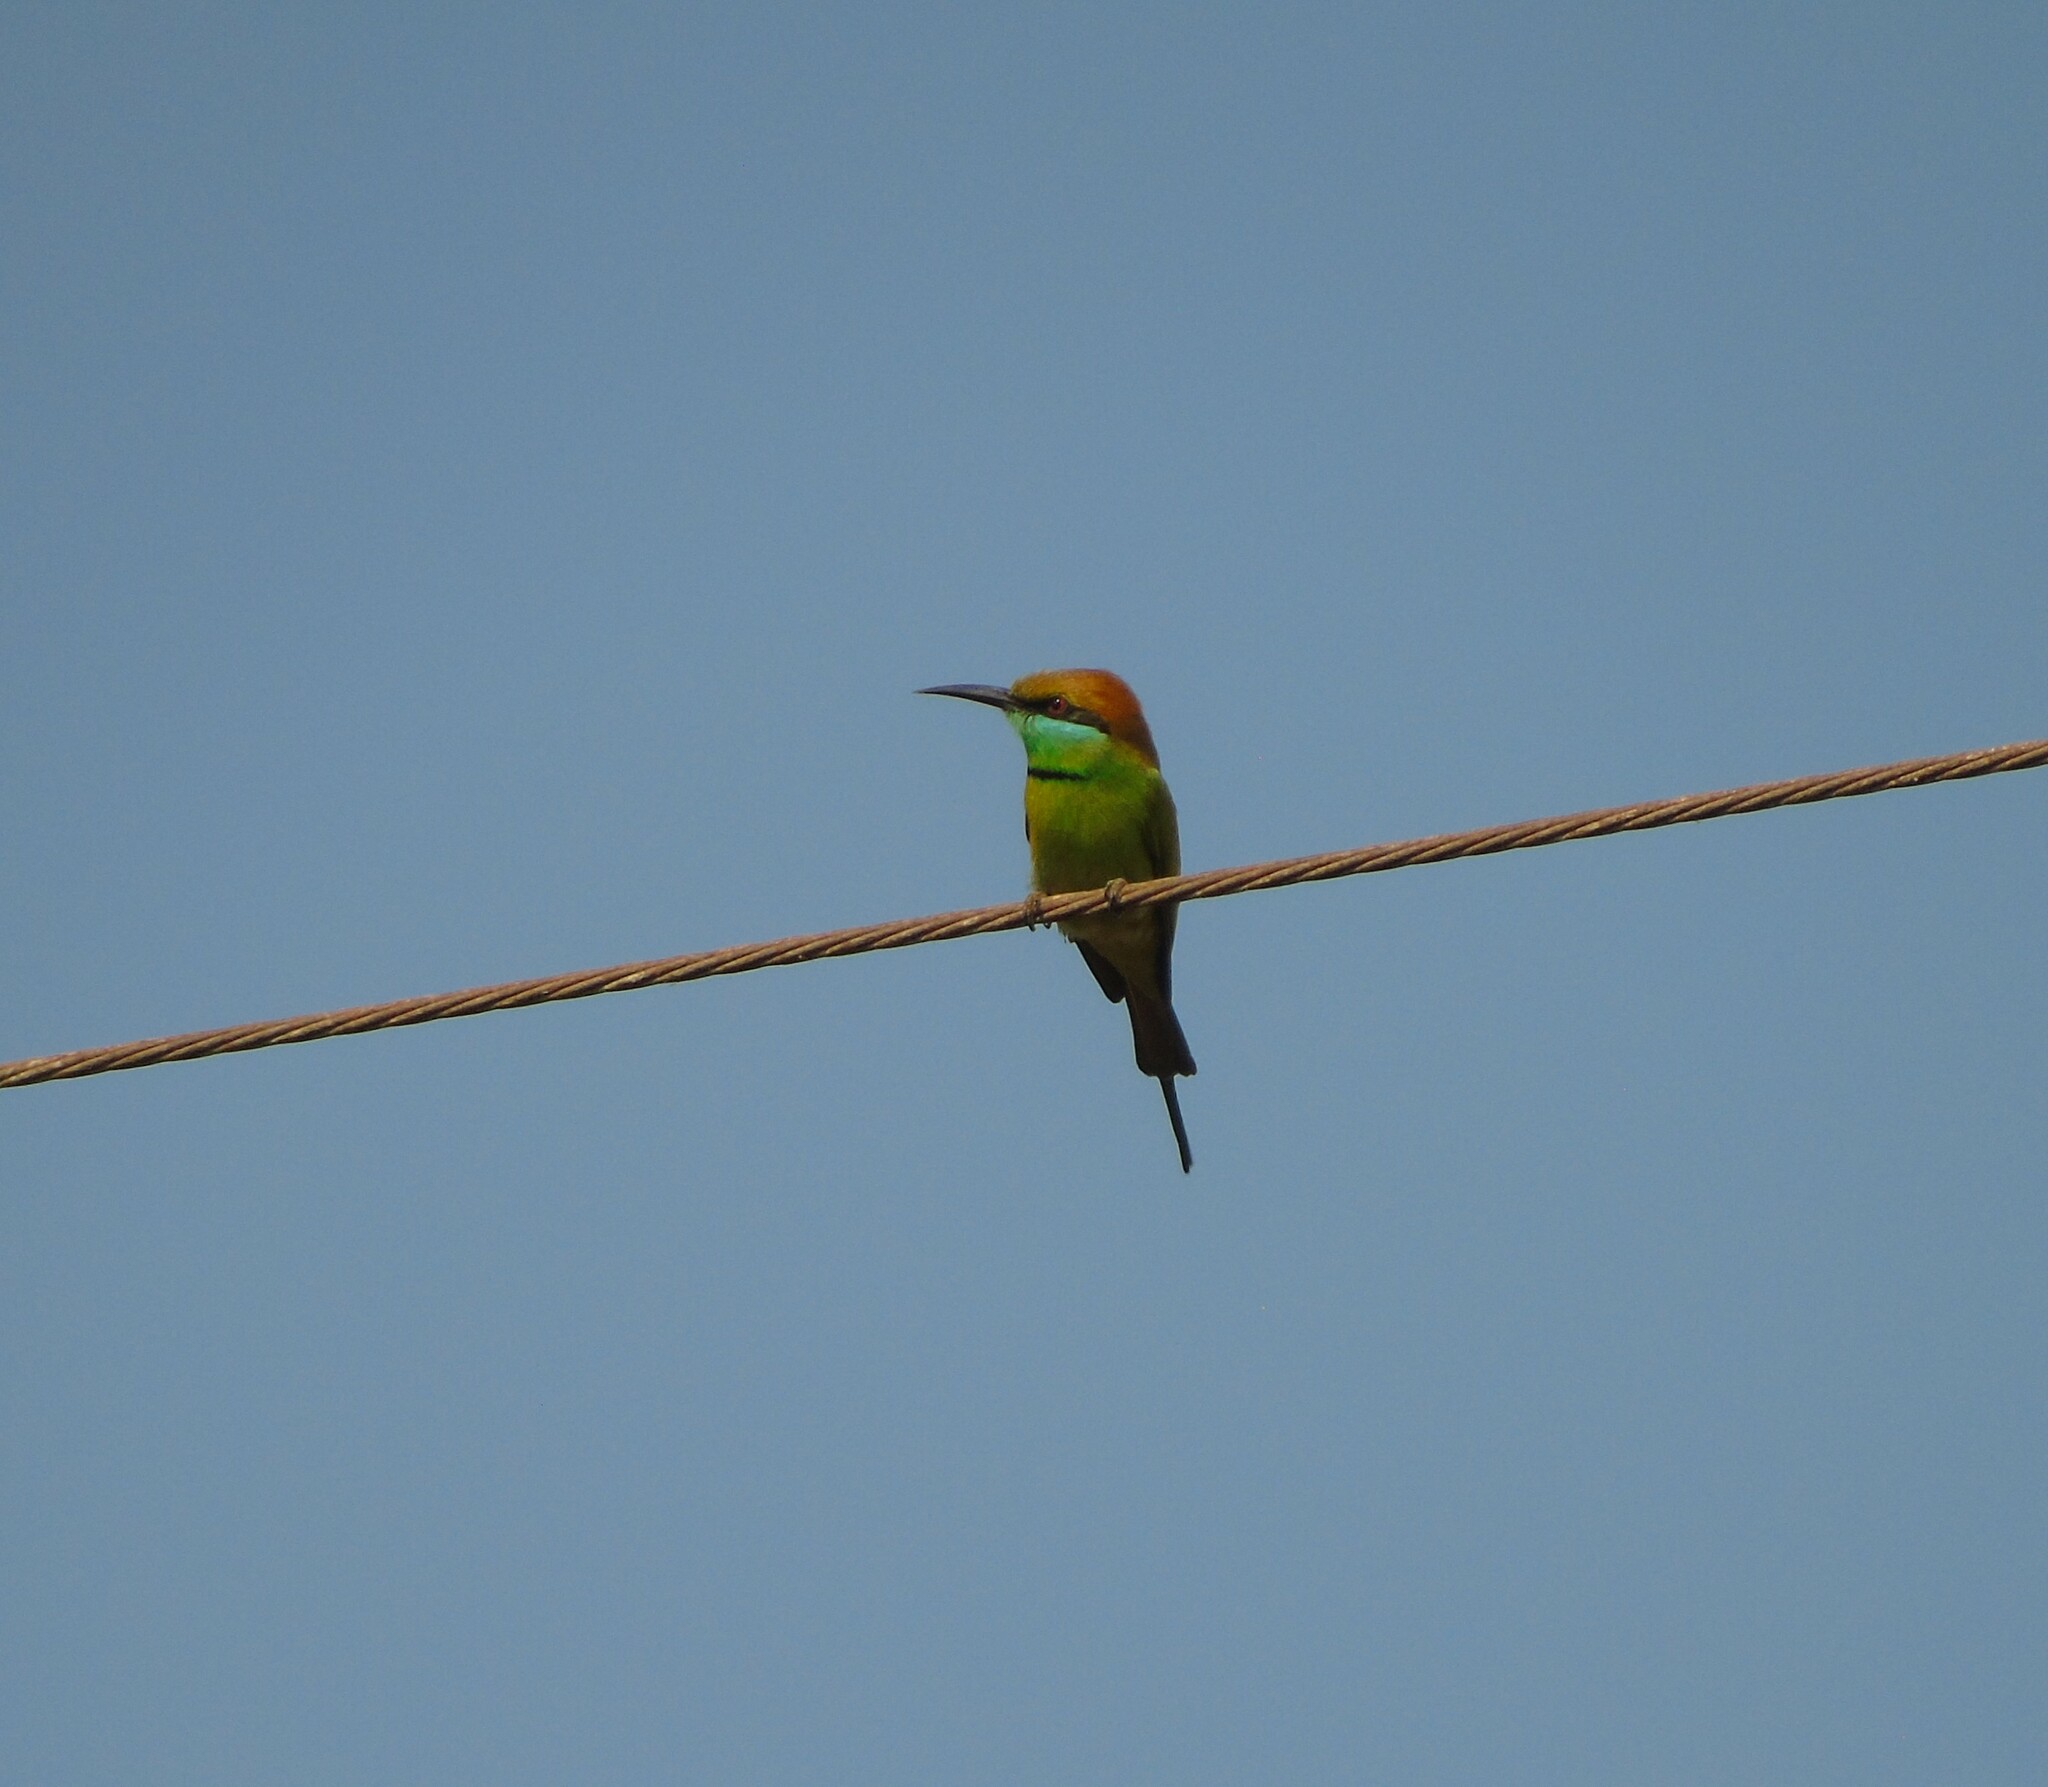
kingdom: Animalia
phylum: Chordata
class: Aves
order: Coraciiformes
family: Meropidae
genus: Merops
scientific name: Merops orientalis
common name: Green bee-eater
